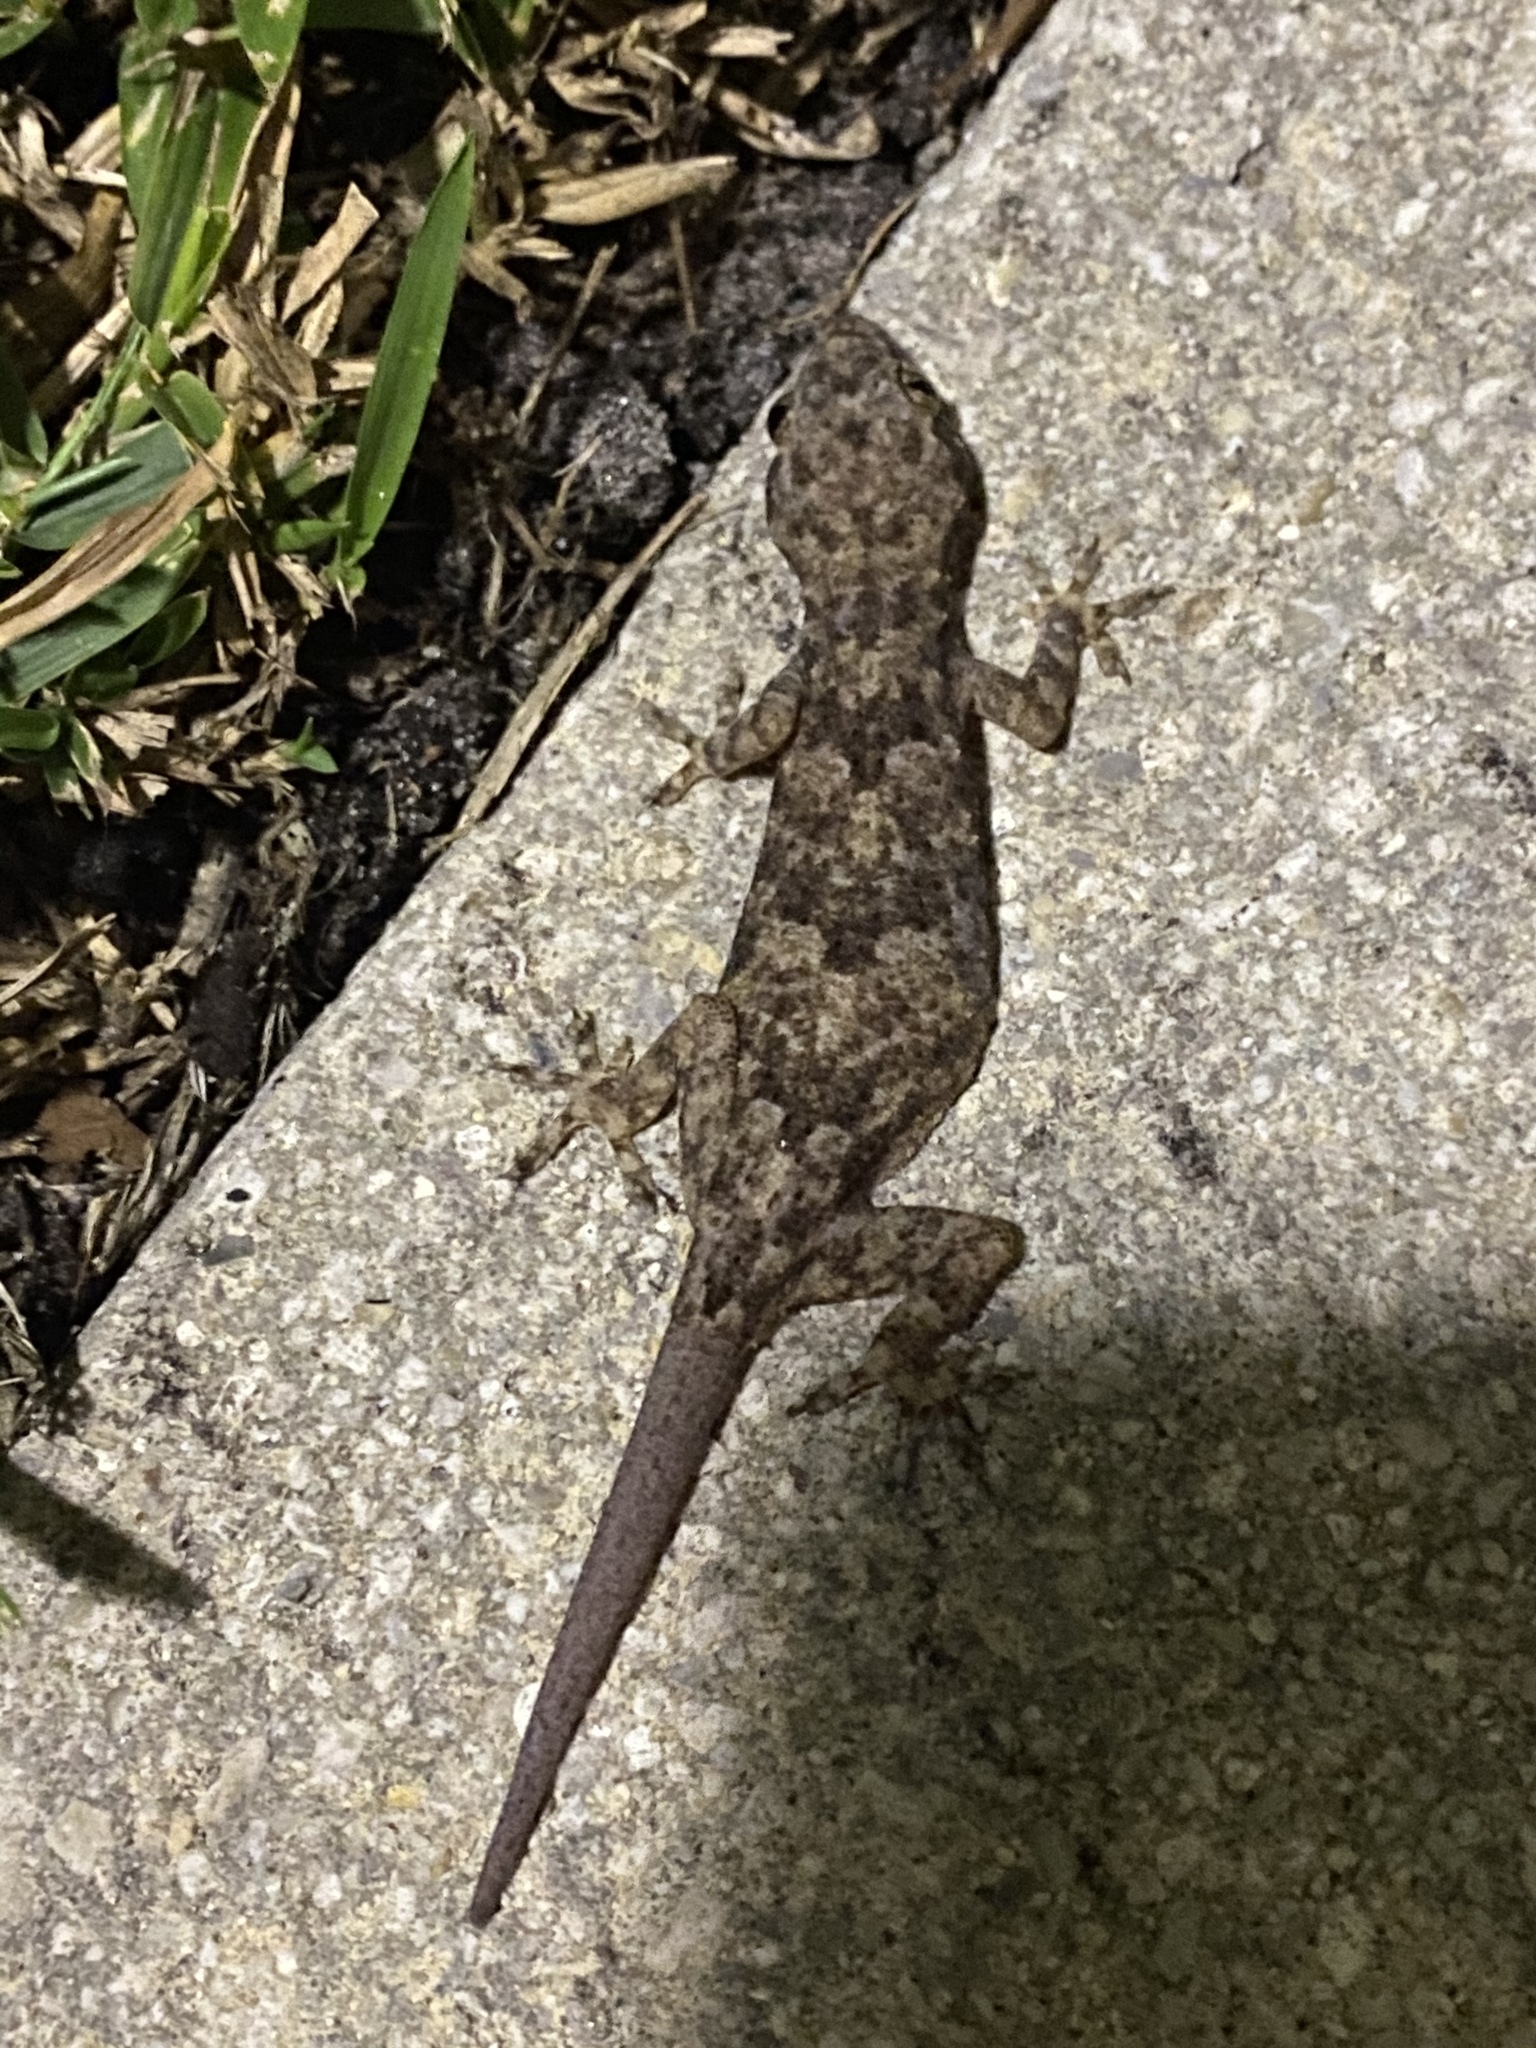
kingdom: Animalia
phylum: Chordata
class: Squamata
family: Gekkonidae
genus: Hemidactylus
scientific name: Hemidactylus mabouia
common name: House gecko
